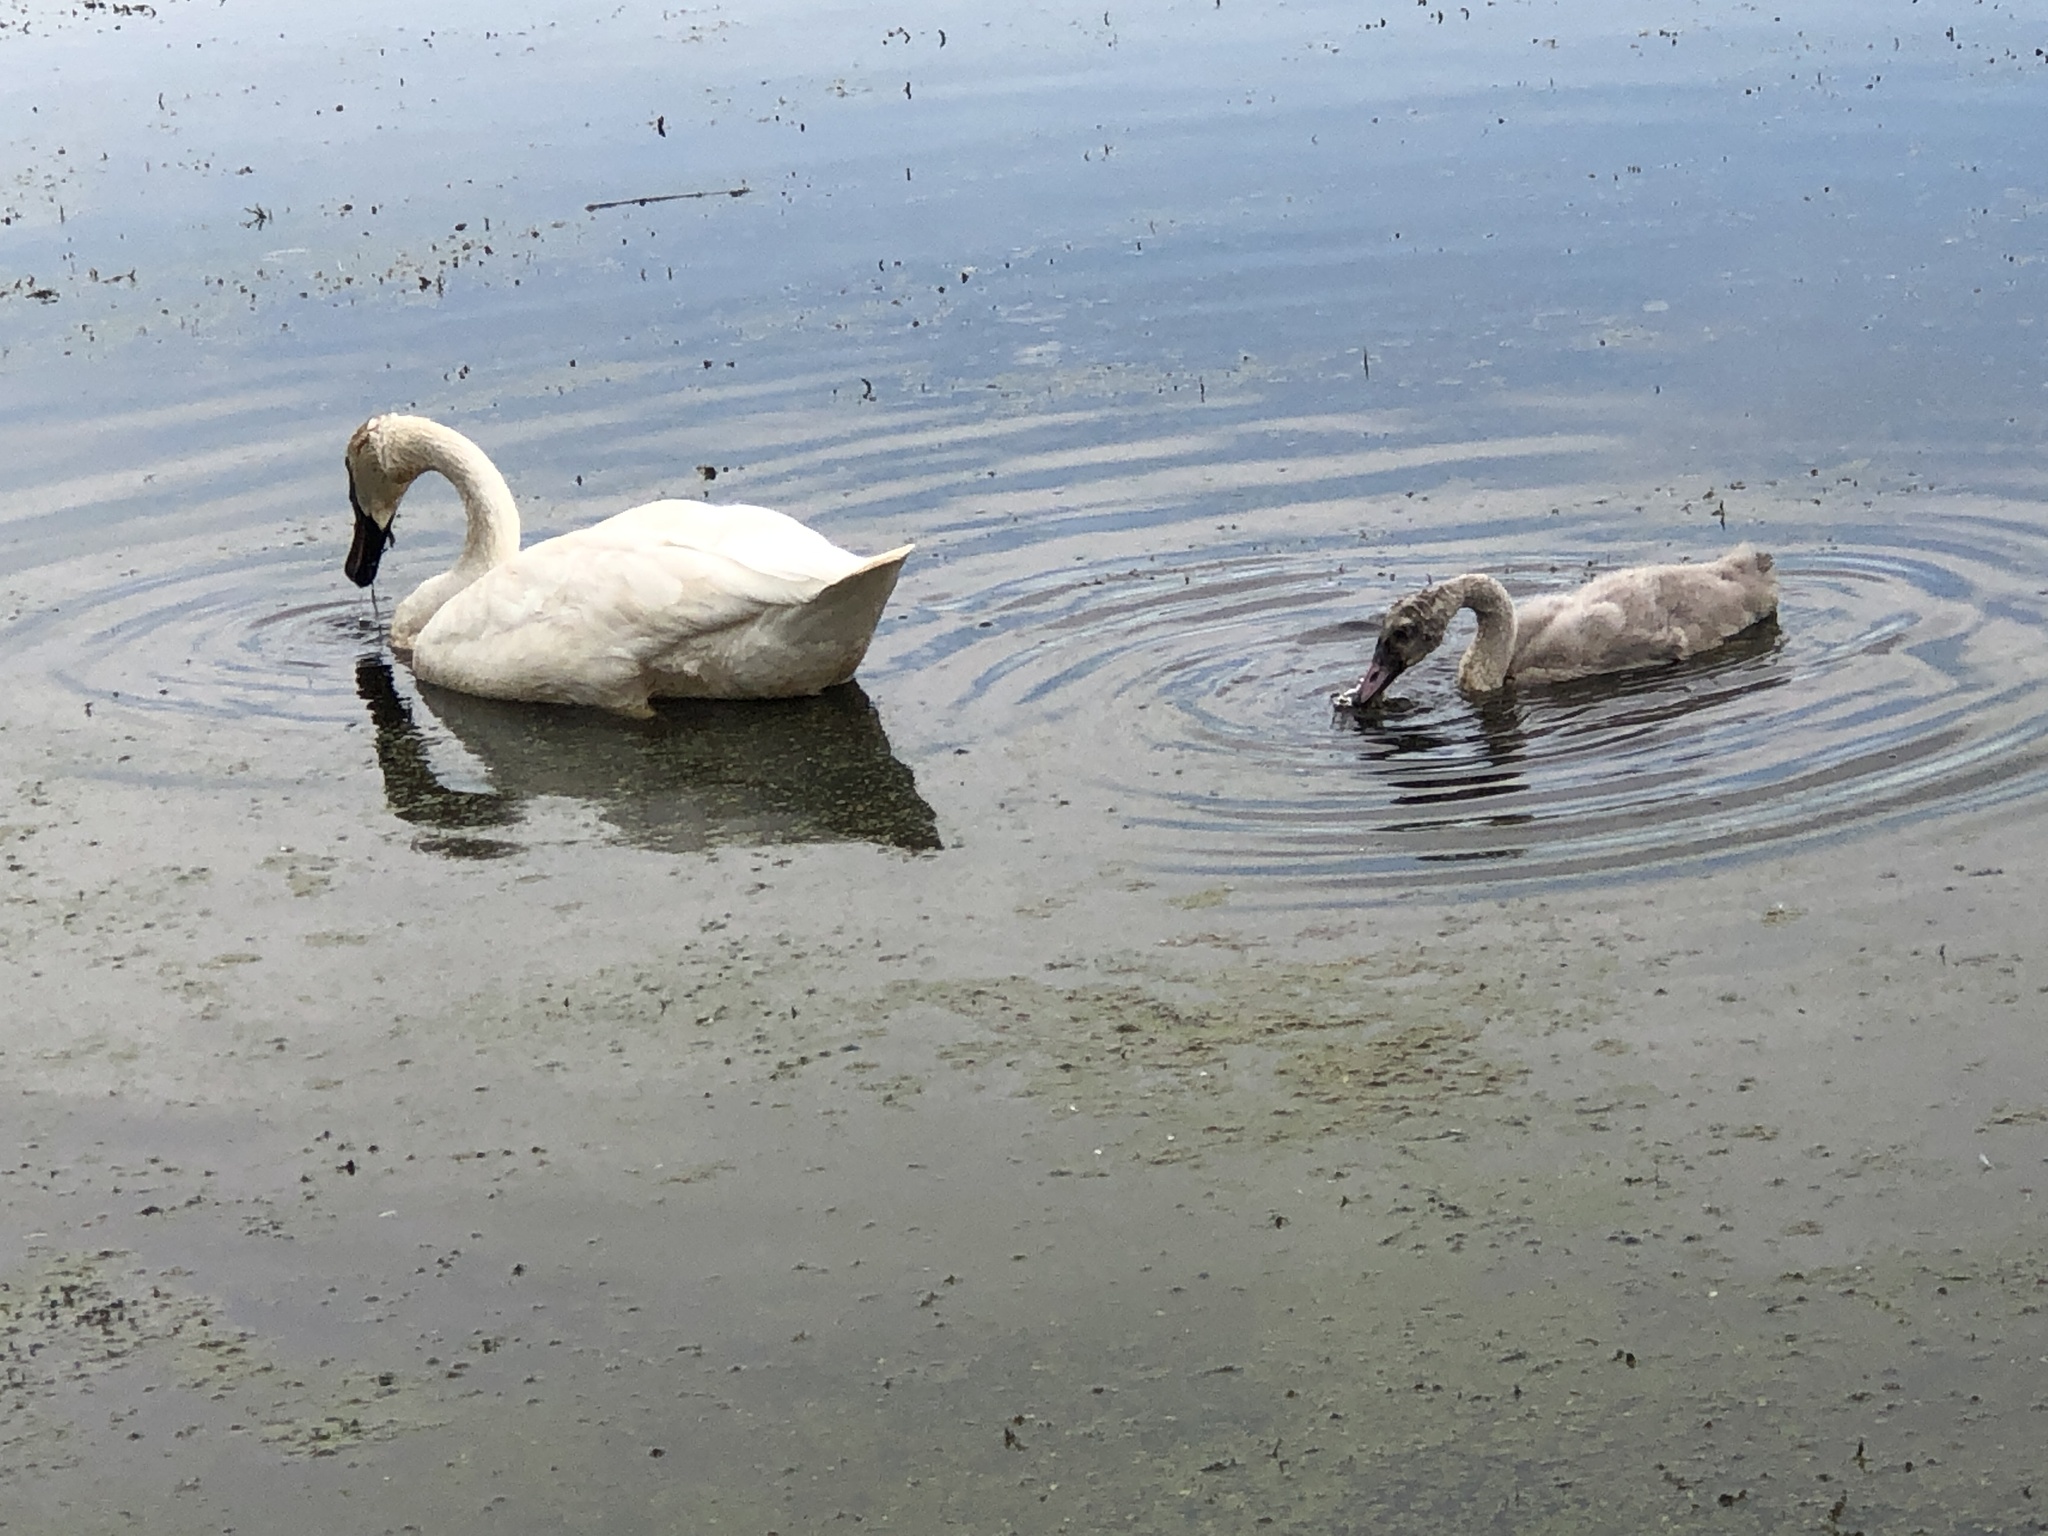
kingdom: Animalia
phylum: Chordata
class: Aves
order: Anseriformes
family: Anatidae
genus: Cygnus
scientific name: Cygnus buccinator
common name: Trumpeter swan
